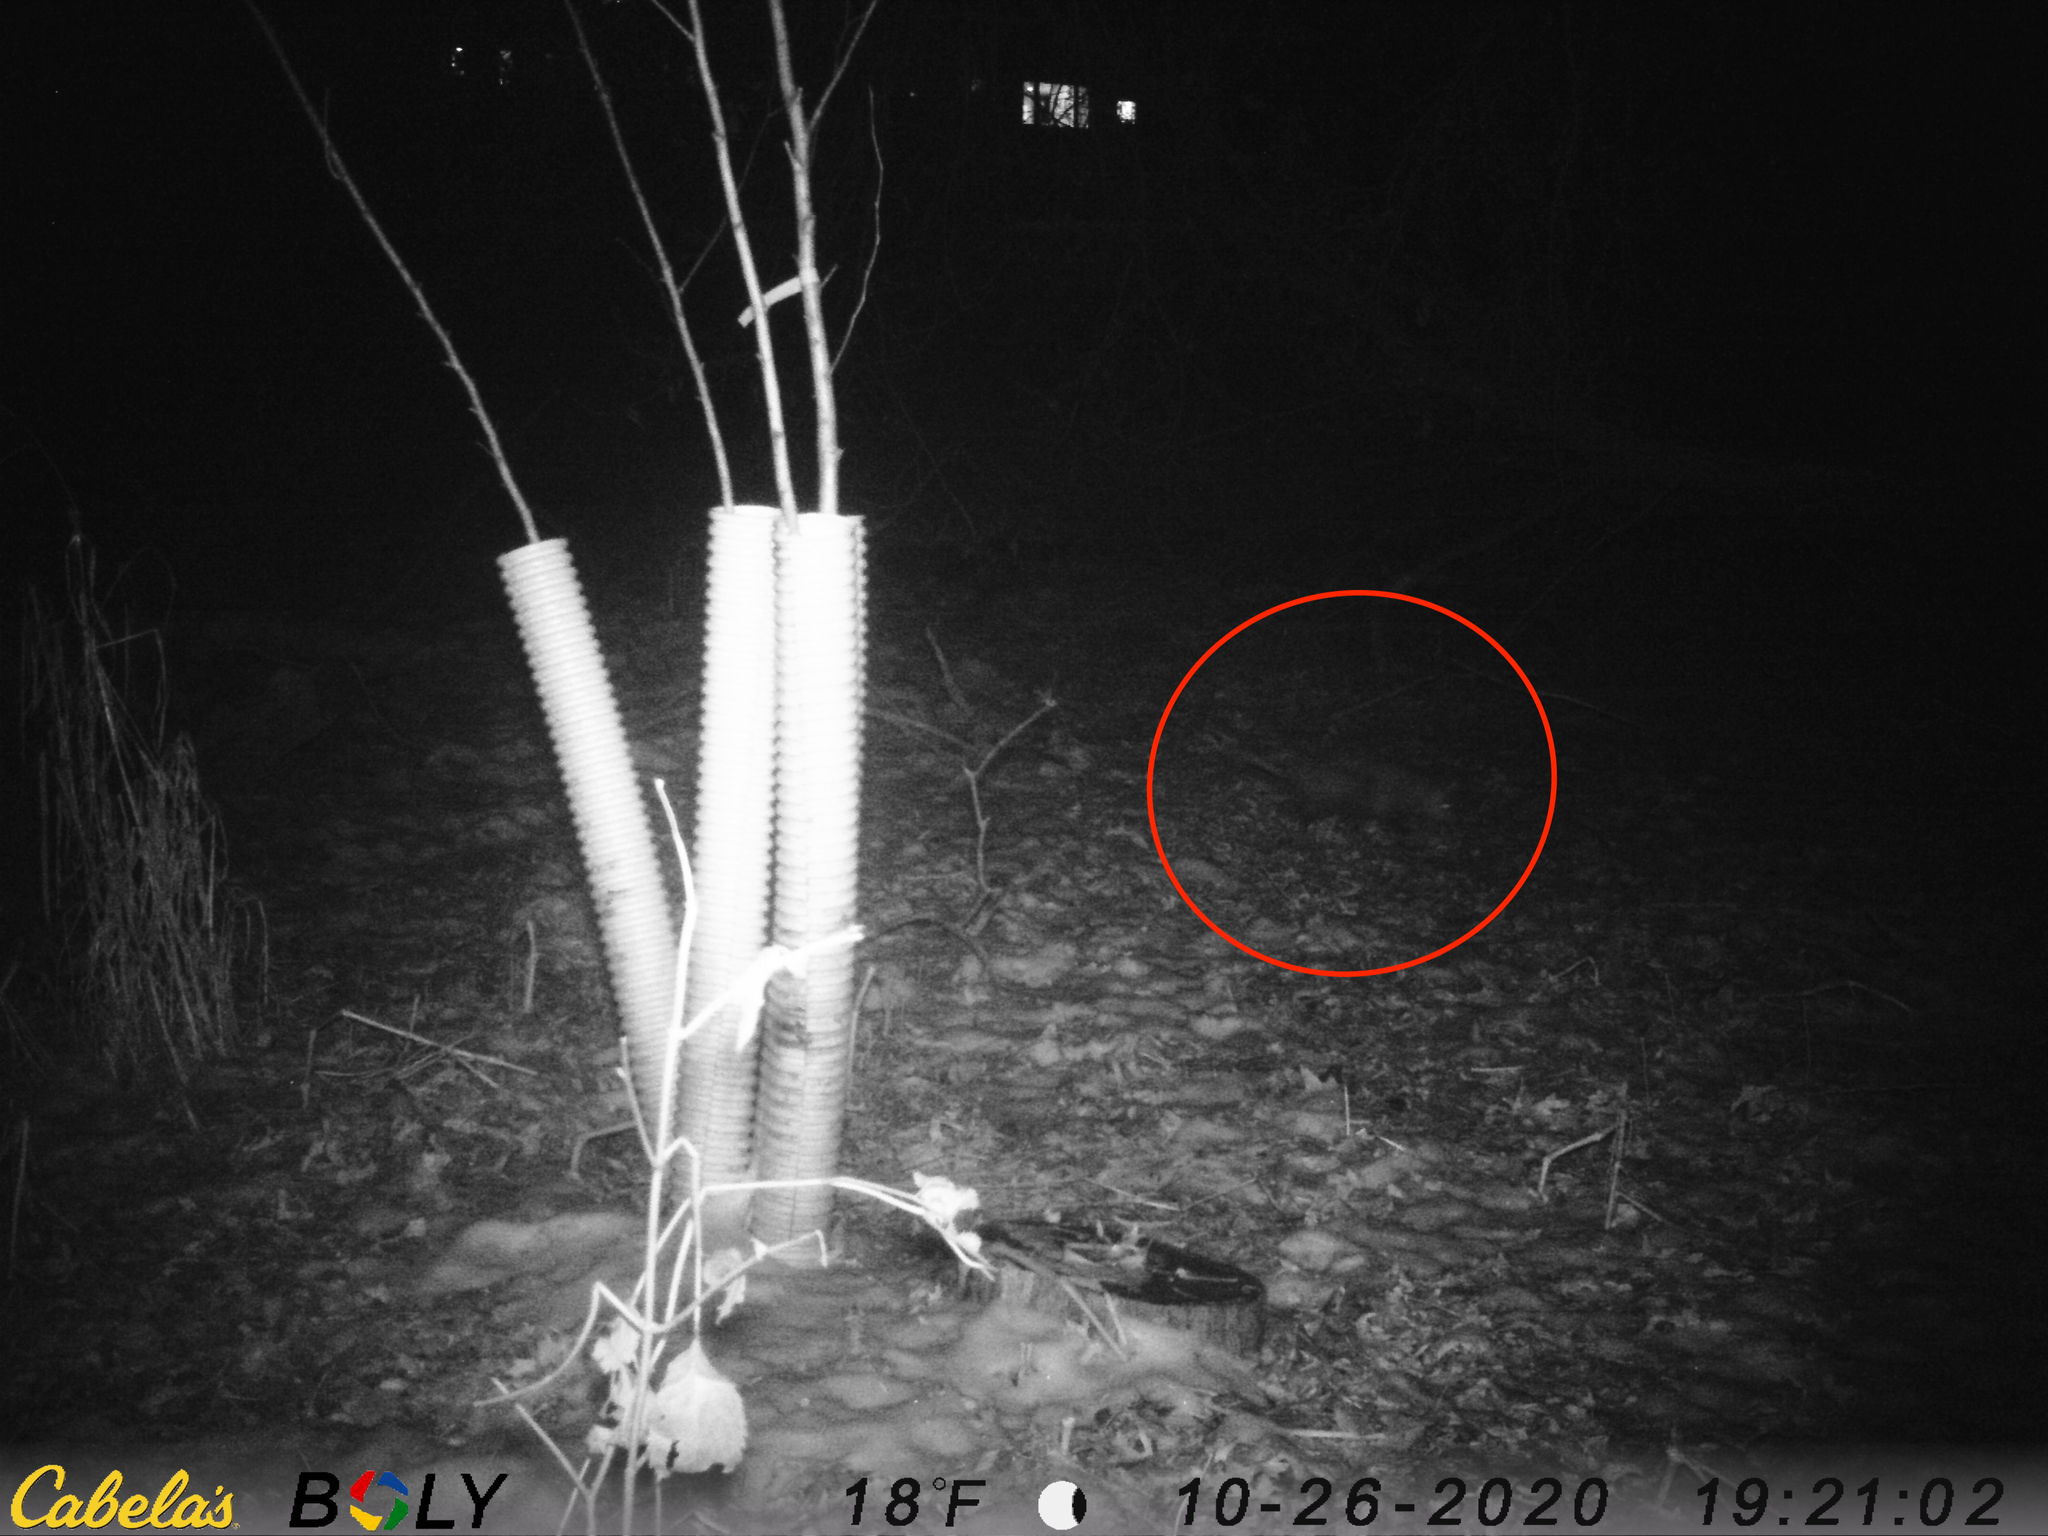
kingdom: Animalia
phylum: Chordata
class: Mammalia
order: Didelphimorphia
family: Didelphidae
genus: Didelphis
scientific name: Didelphis virginiana
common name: Virginia opossum
